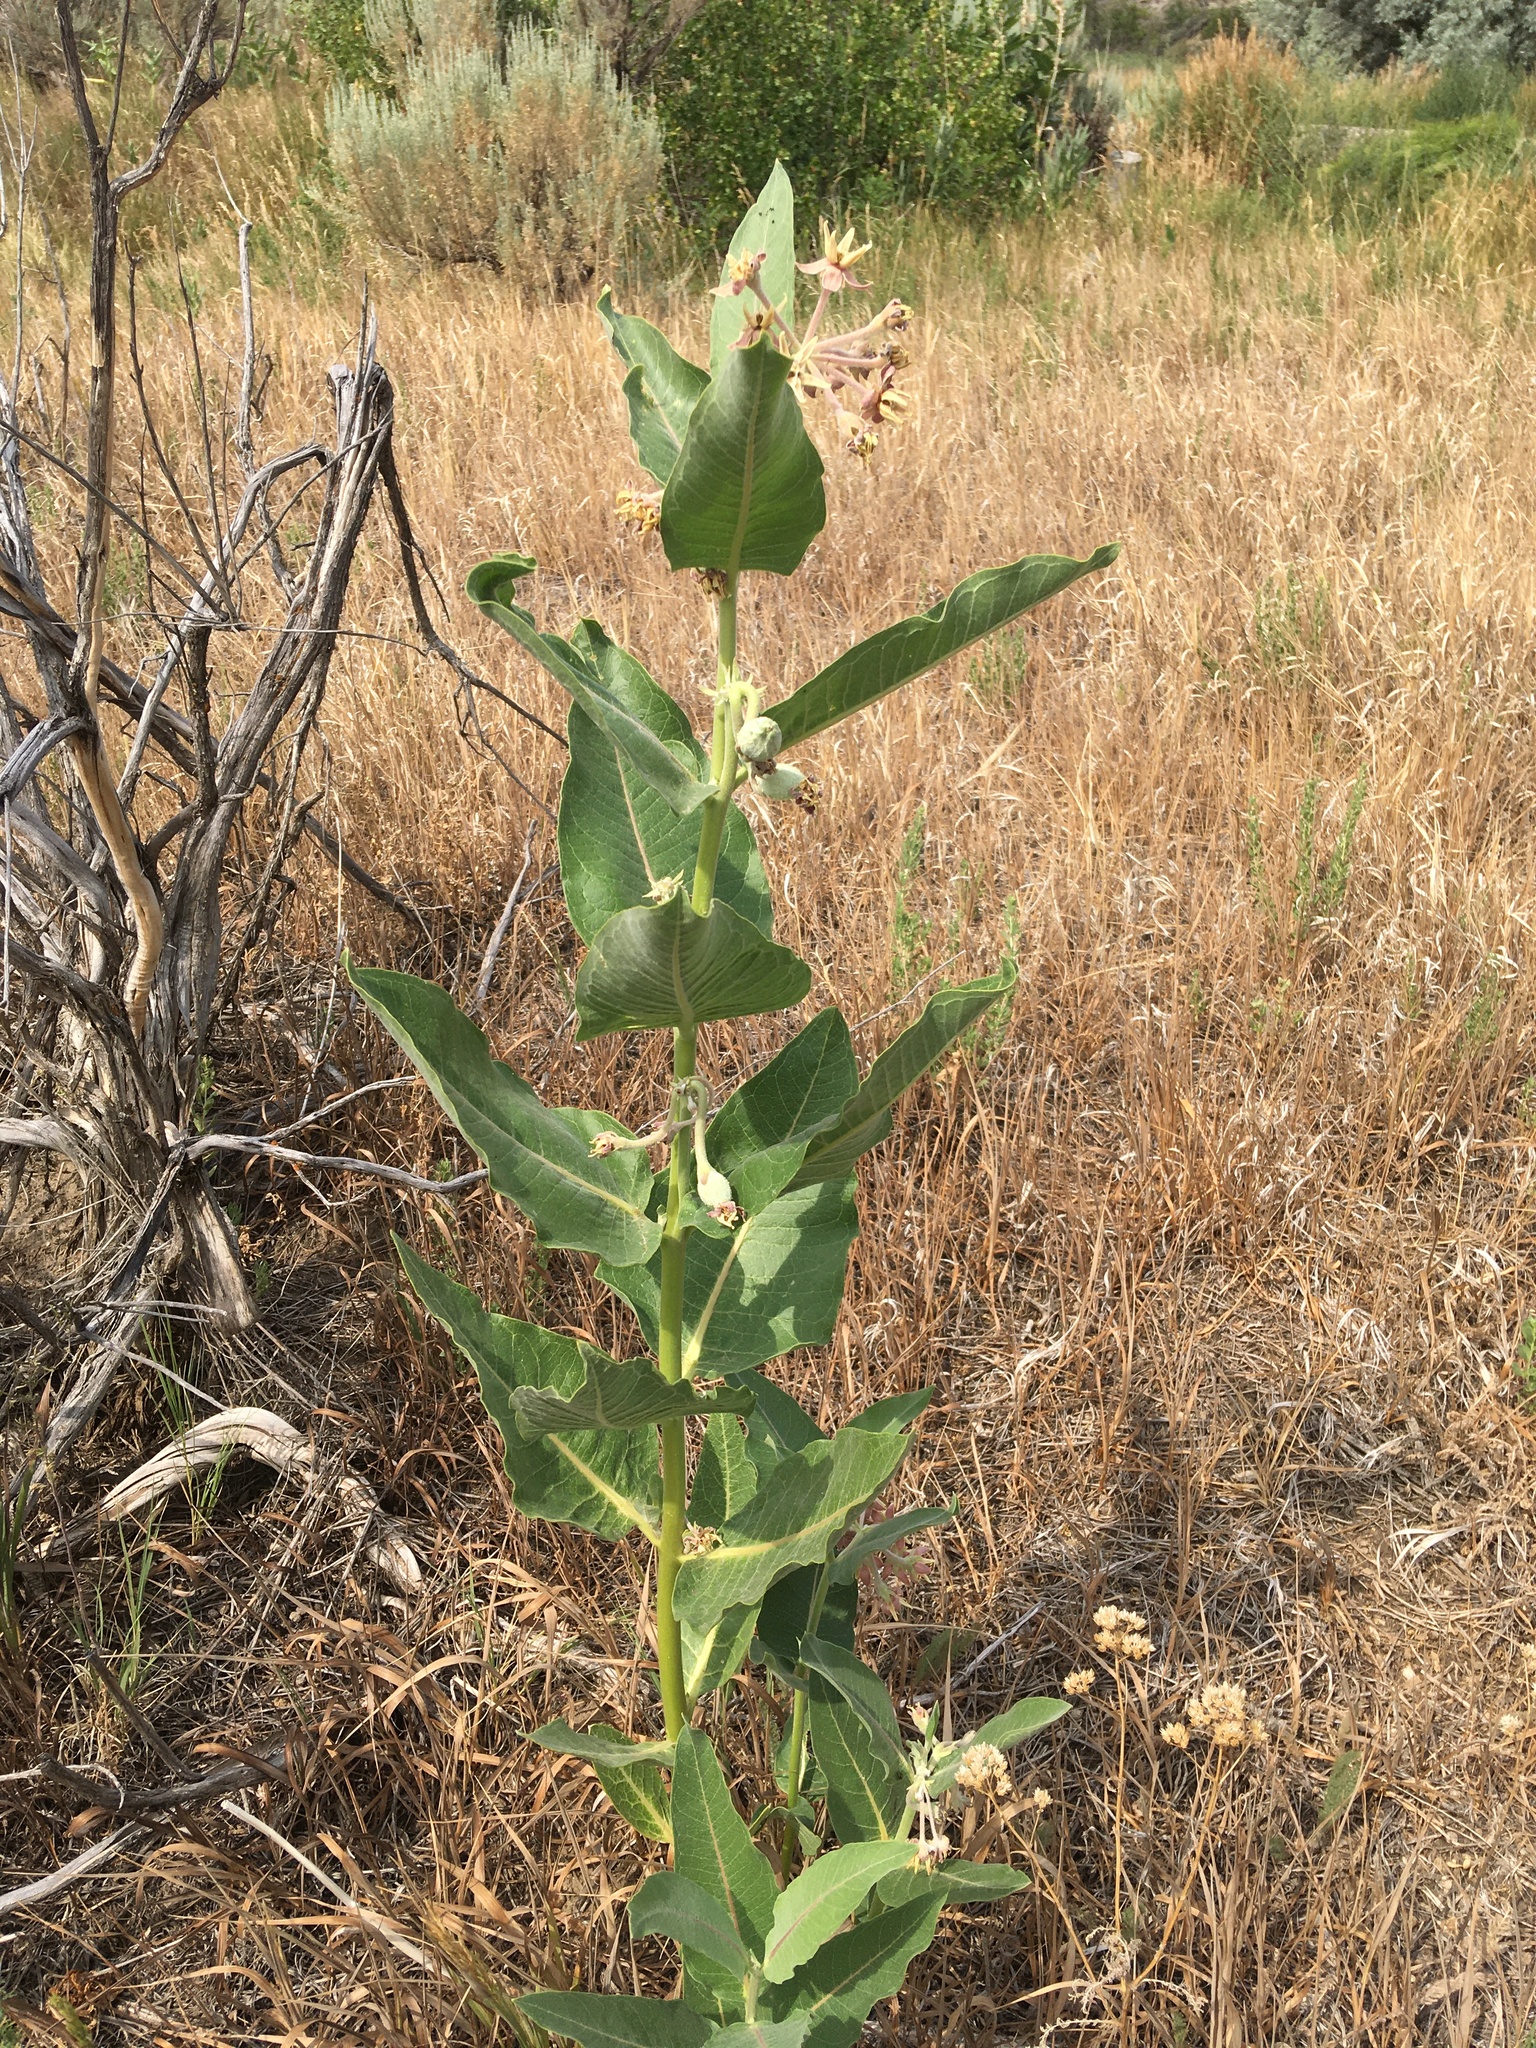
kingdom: Plantae
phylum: Tracheophyta
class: Magnoliopsida
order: Gentianales
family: Apocynaceae
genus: Asclepias
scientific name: Asclepias speciosa
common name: Showy milkweed
